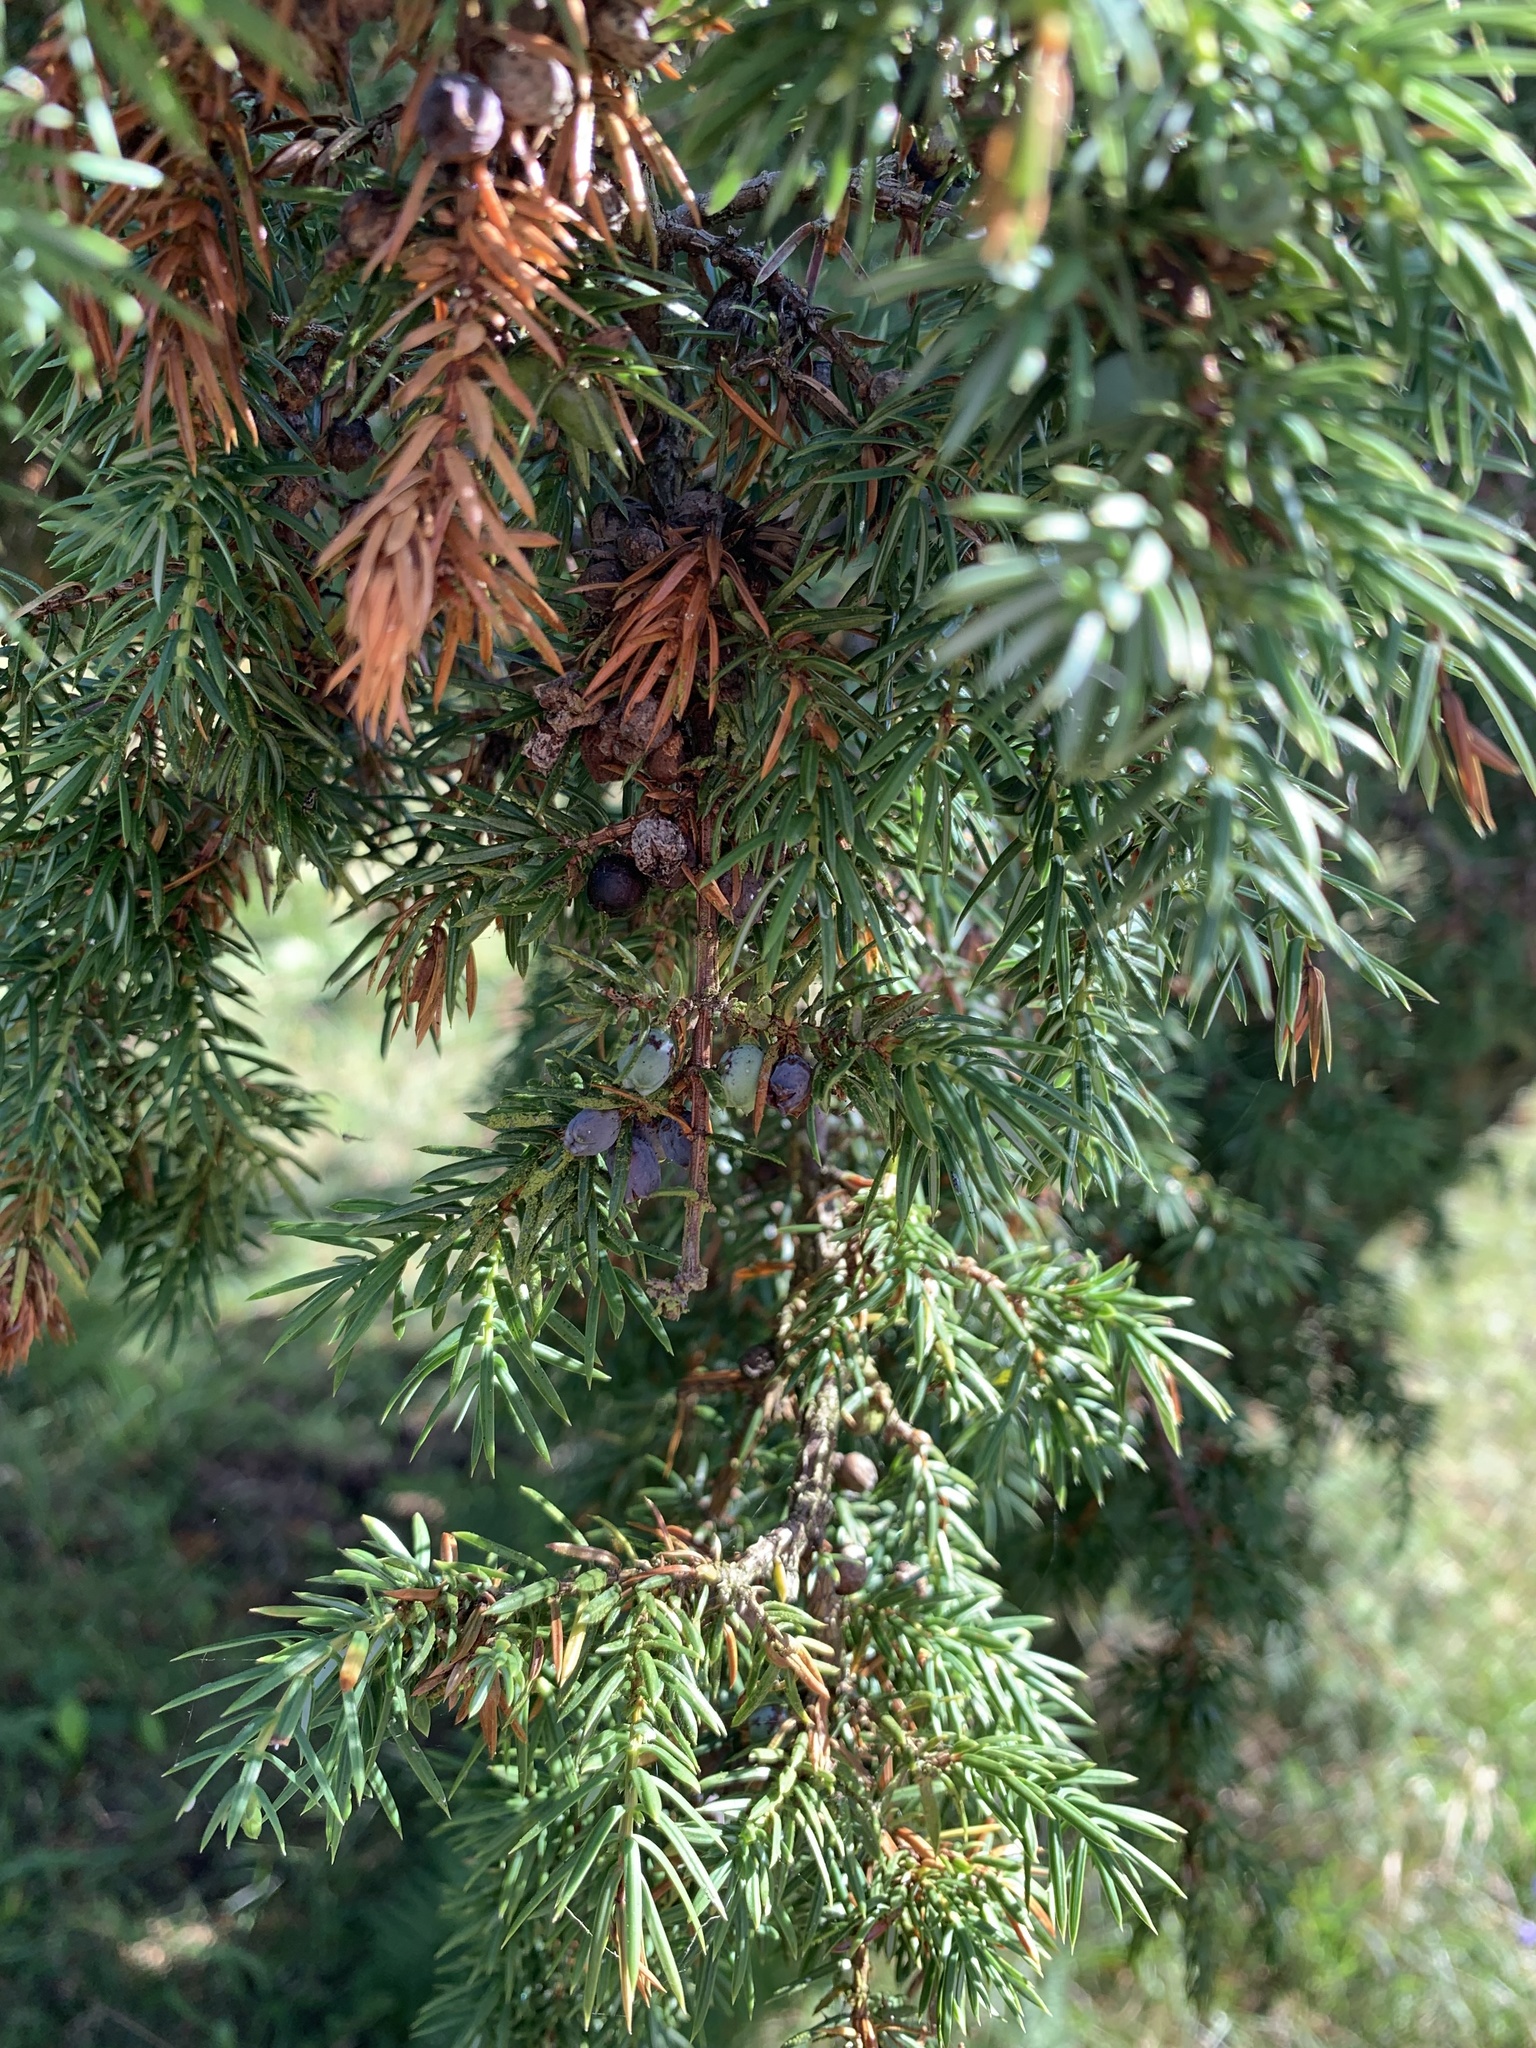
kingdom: Plantae
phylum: Tracheophyta
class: Pinopsida
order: Pinales
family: Cupressaceae
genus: Juniperus
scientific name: Juniperus communis
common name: Common juniper
